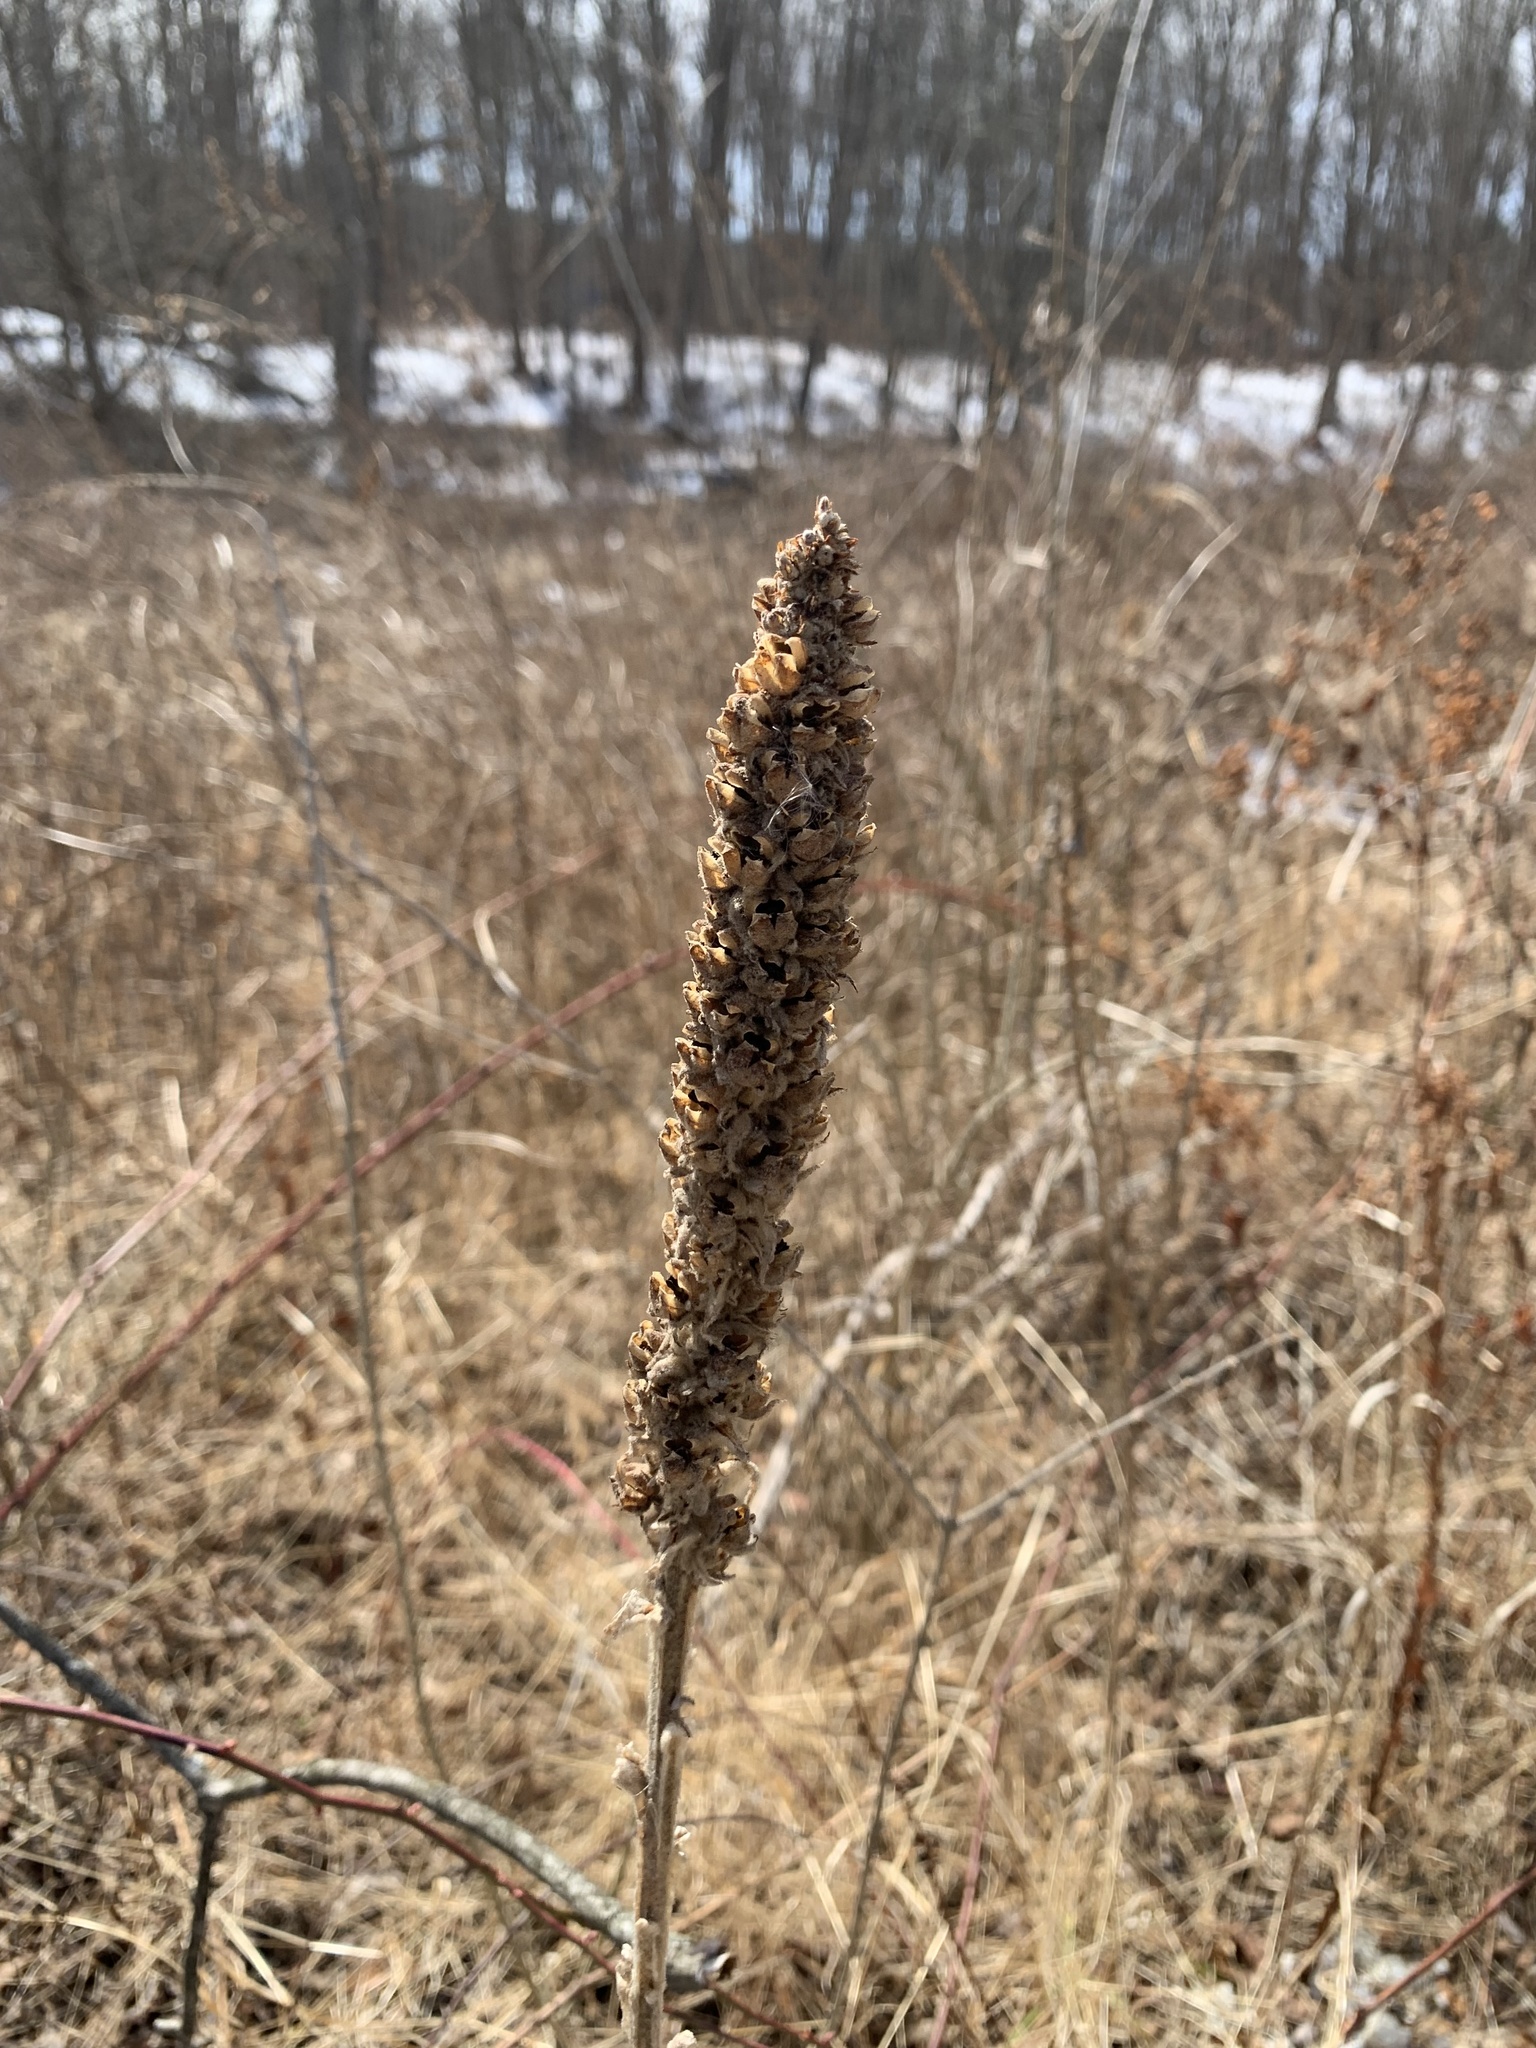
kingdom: Plantae
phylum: Tracheophyta
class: Magnoliopsida
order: Lamiales
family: Scrophulariaceae
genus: Verbascum
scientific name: Verbascum thapsus
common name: Common mullein
